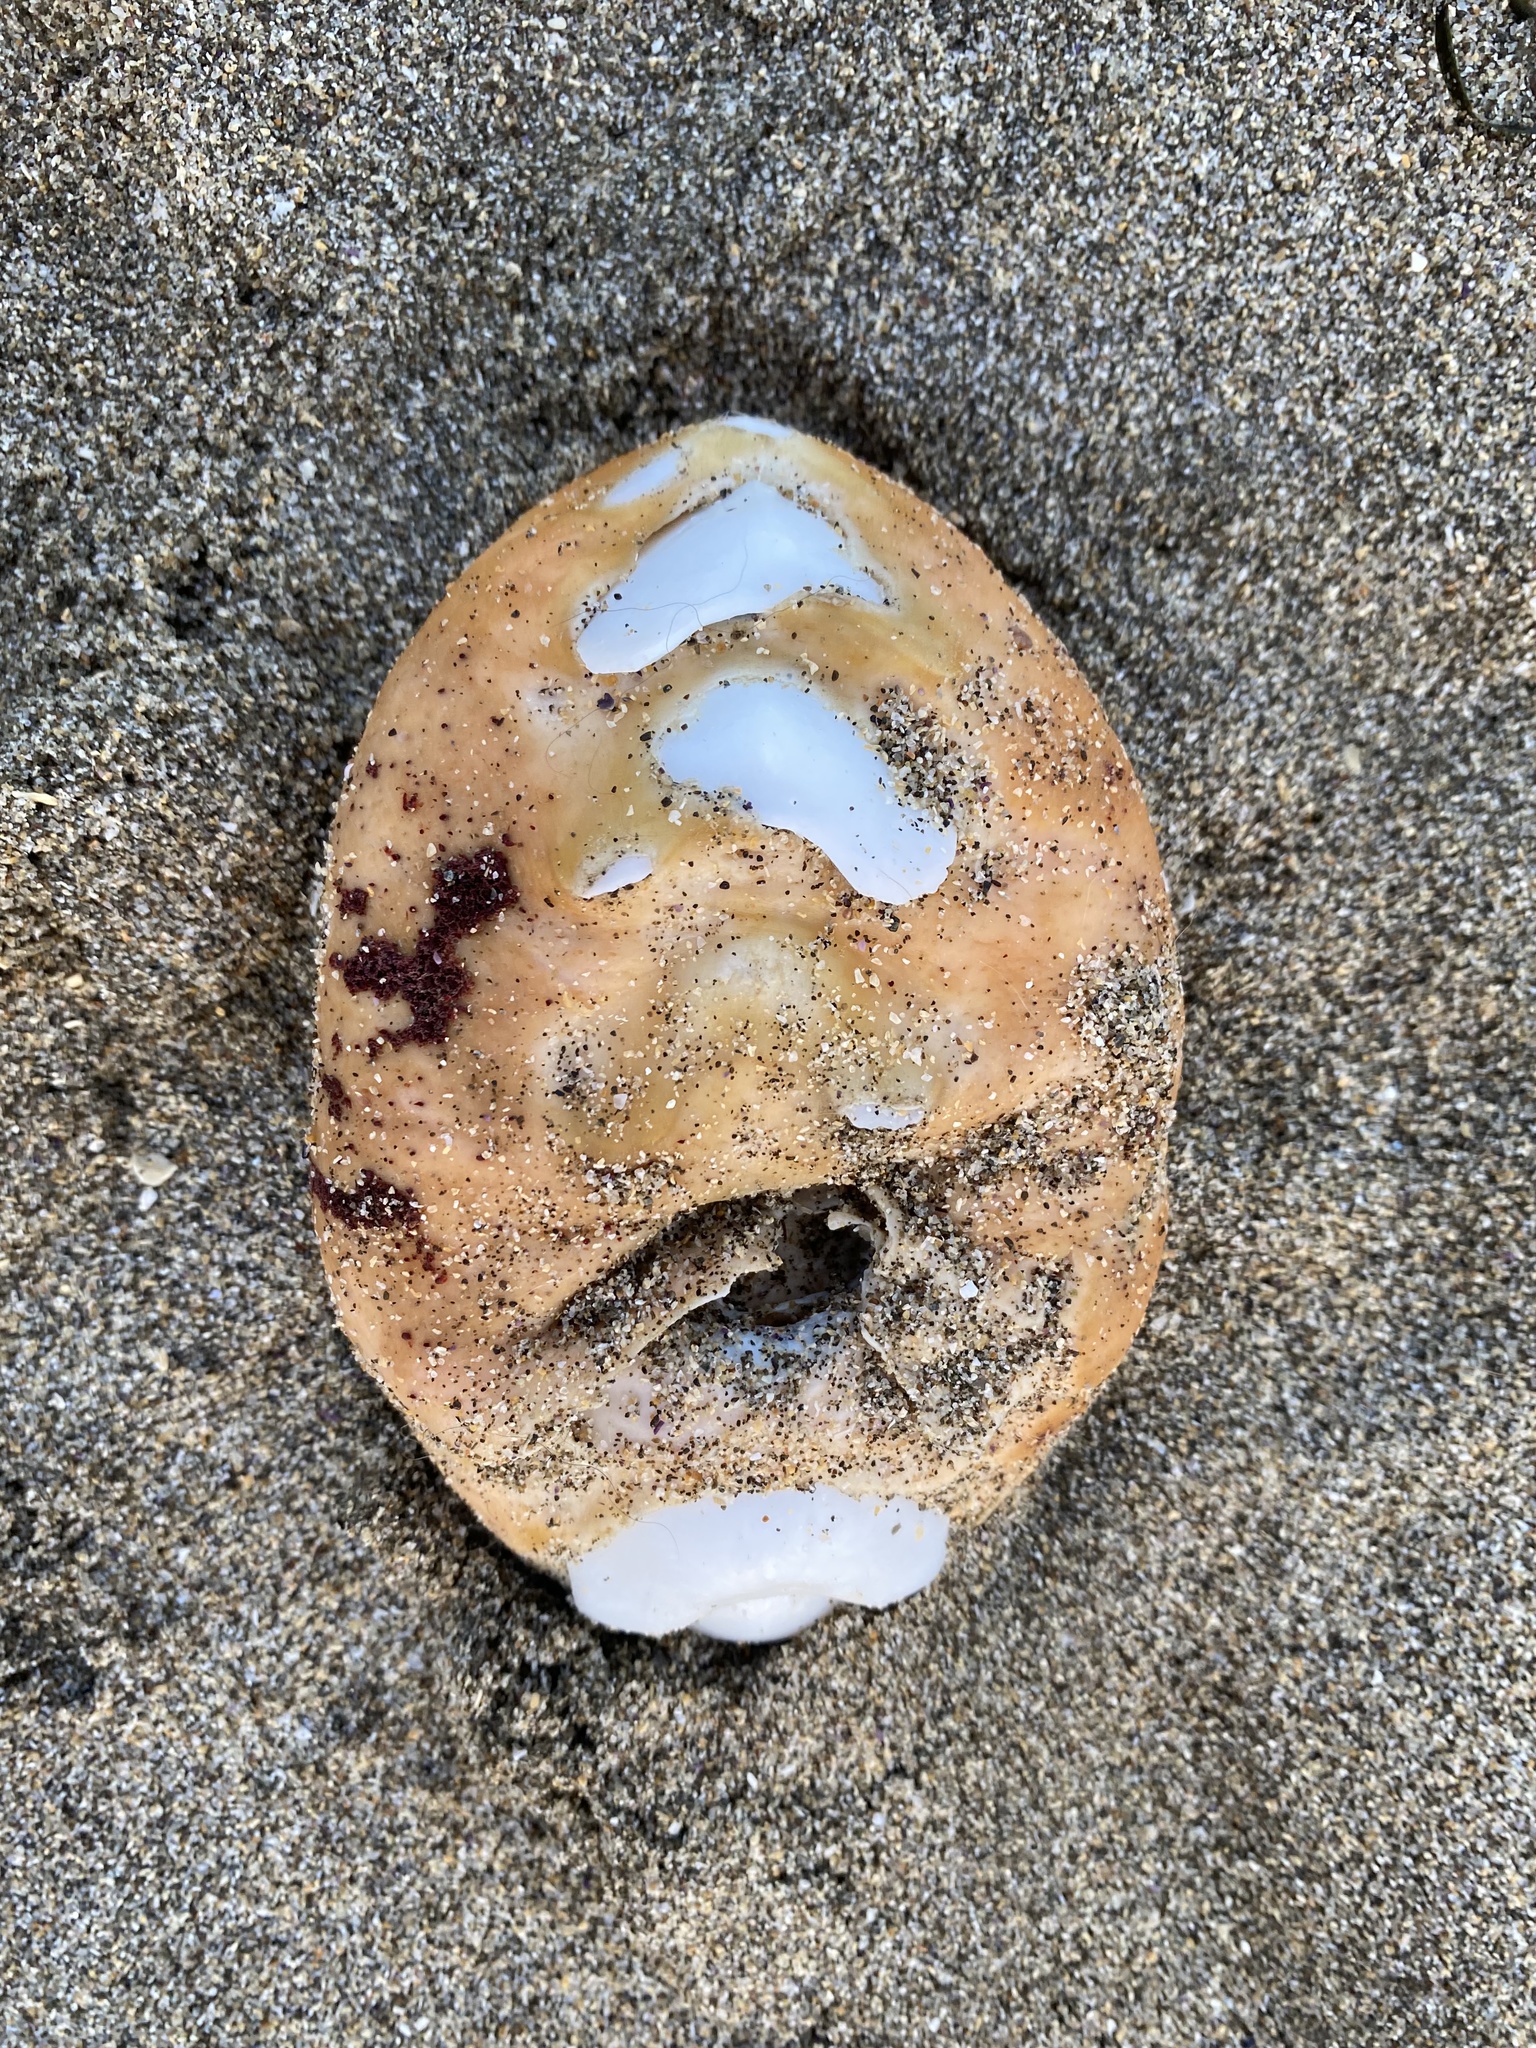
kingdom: Animalia
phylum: Mollusca
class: Polyplacophora
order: Chitonida
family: Acanthochitonidae
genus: Cryptochiton
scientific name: Cryptochiton stelleri
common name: Giant pacific chiton
